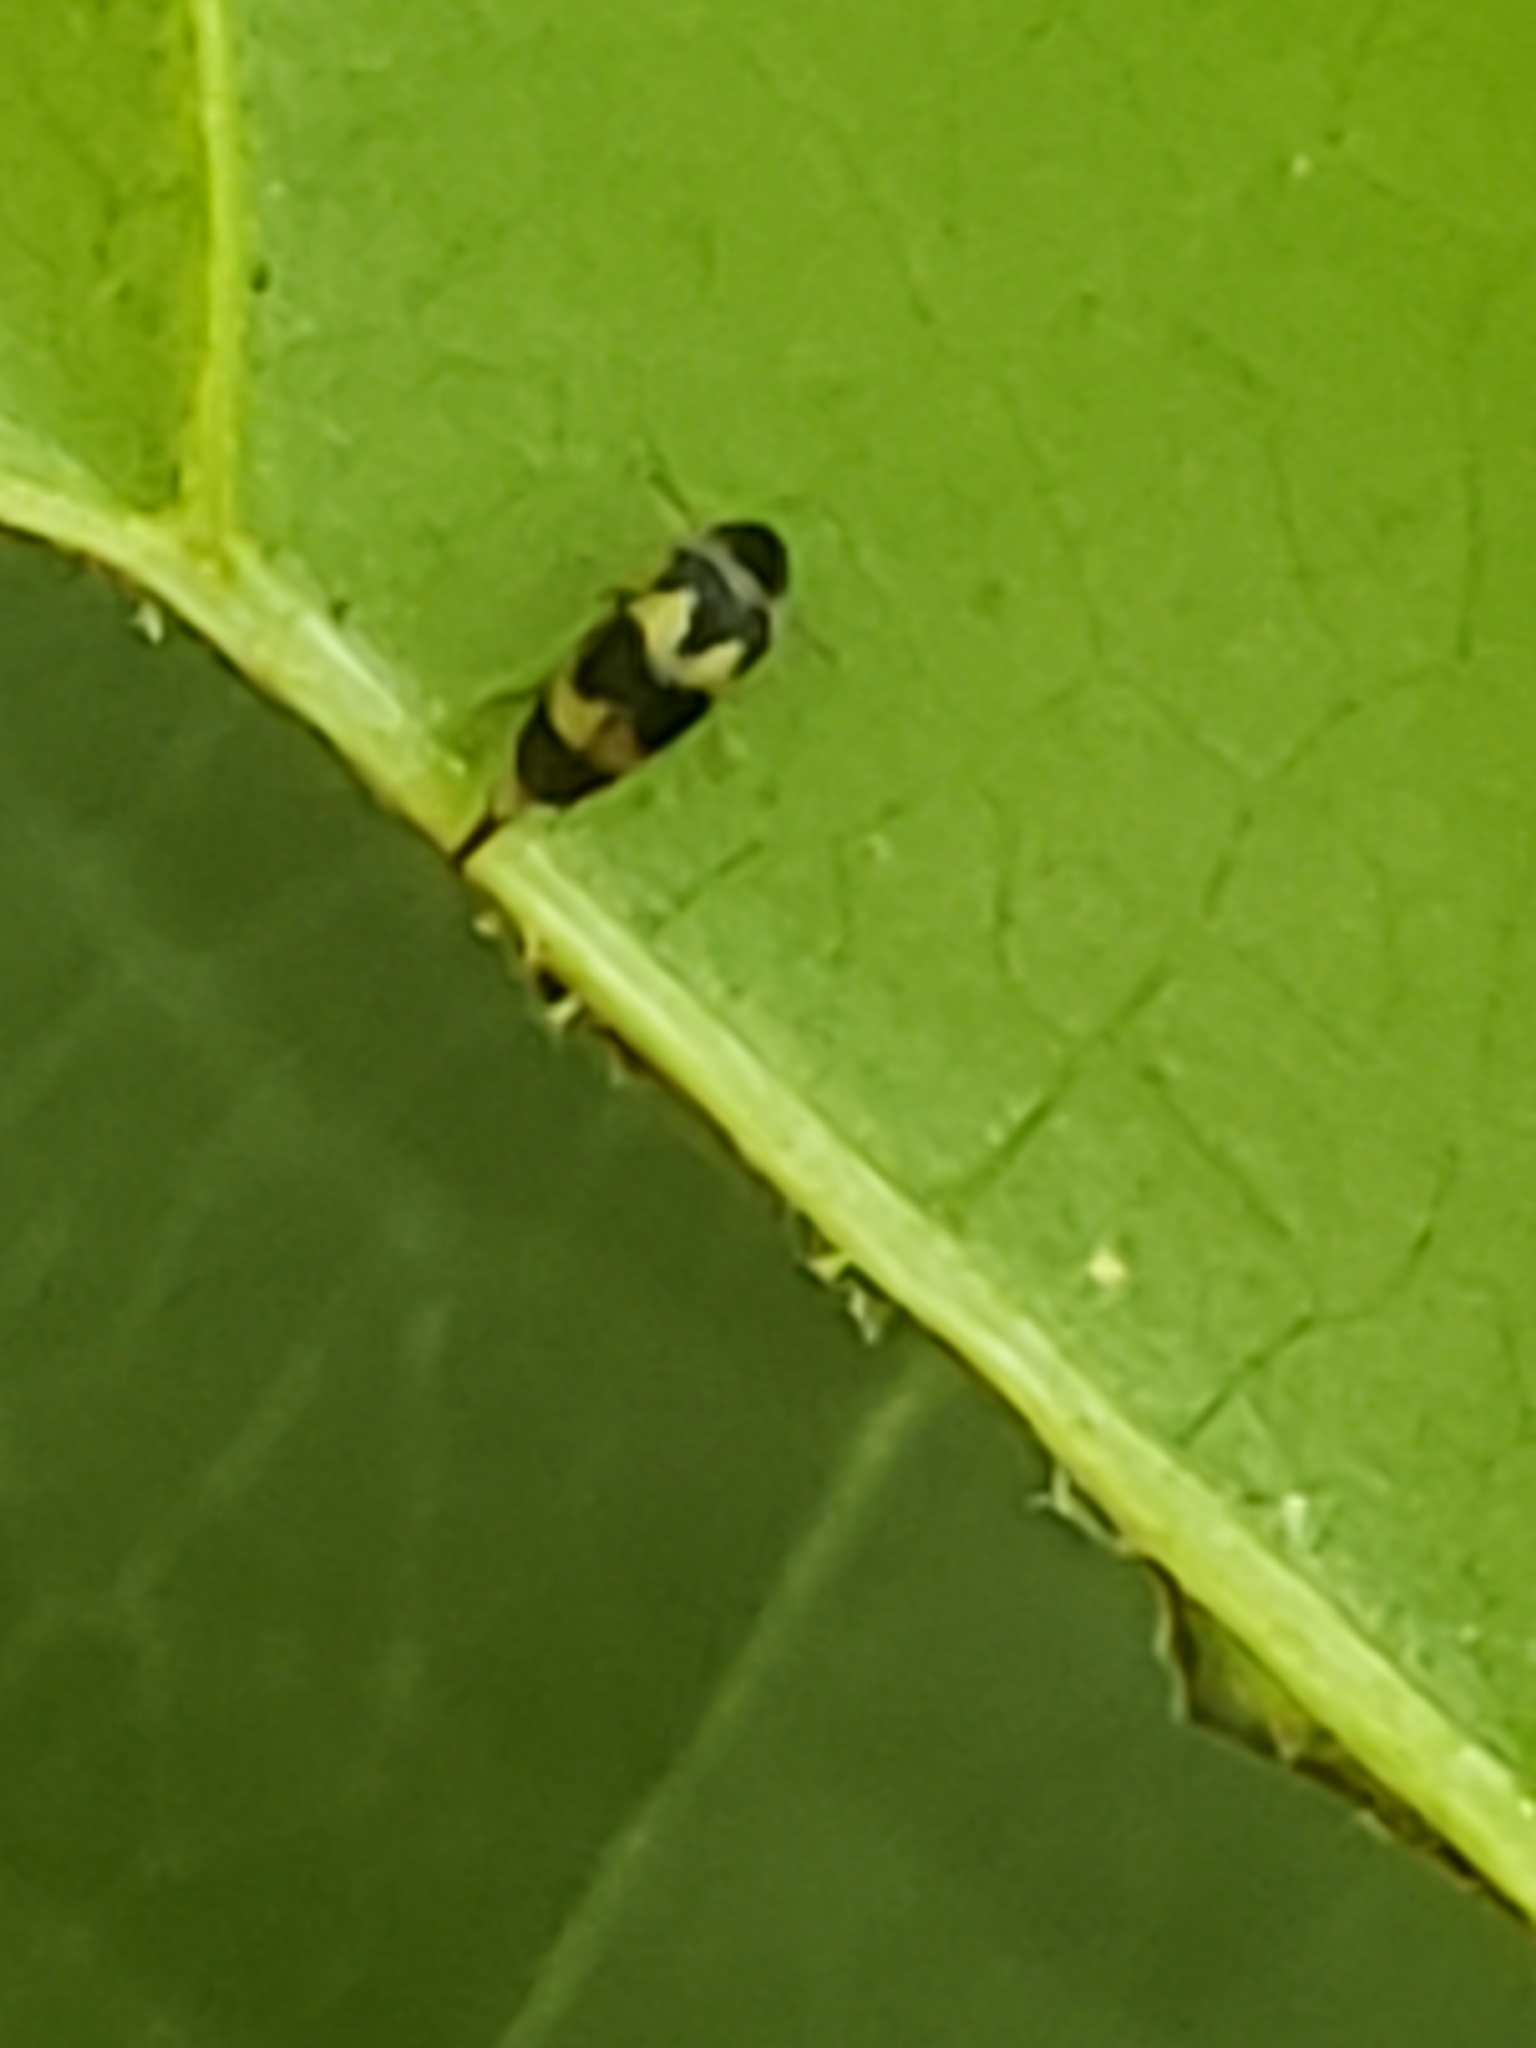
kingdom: Animalia
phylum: Arthropoda
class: Insecta
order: Coleoptera
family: Mordellidae
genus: Mordellistena
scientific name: Mordellistena trifasciata
